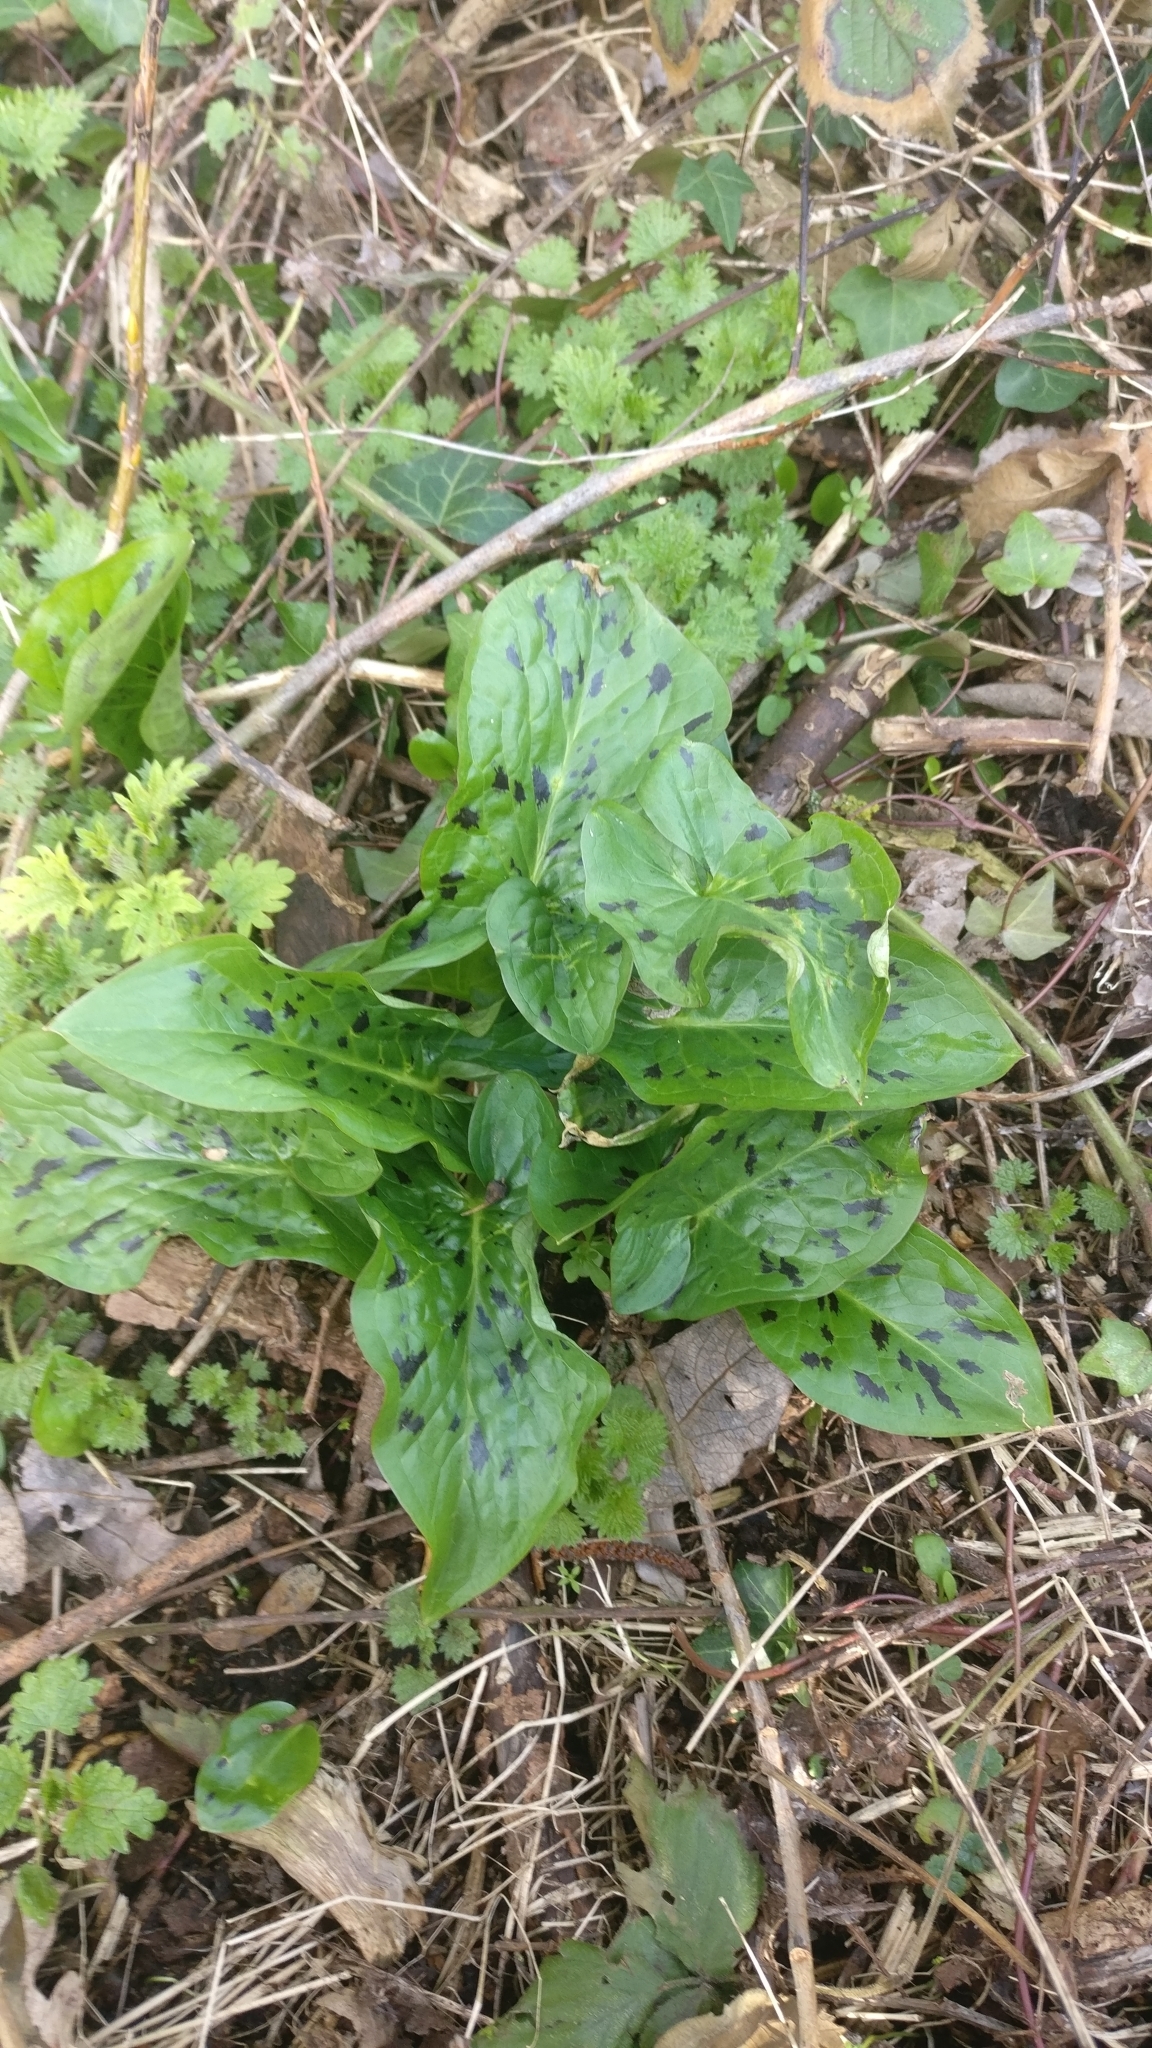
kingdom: Plantae
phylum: Tracheophyta
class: Liliopsida
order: Alismatales
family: Araceae
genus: Arum
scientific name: Arum maculatum
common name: Lords-and-ladies
